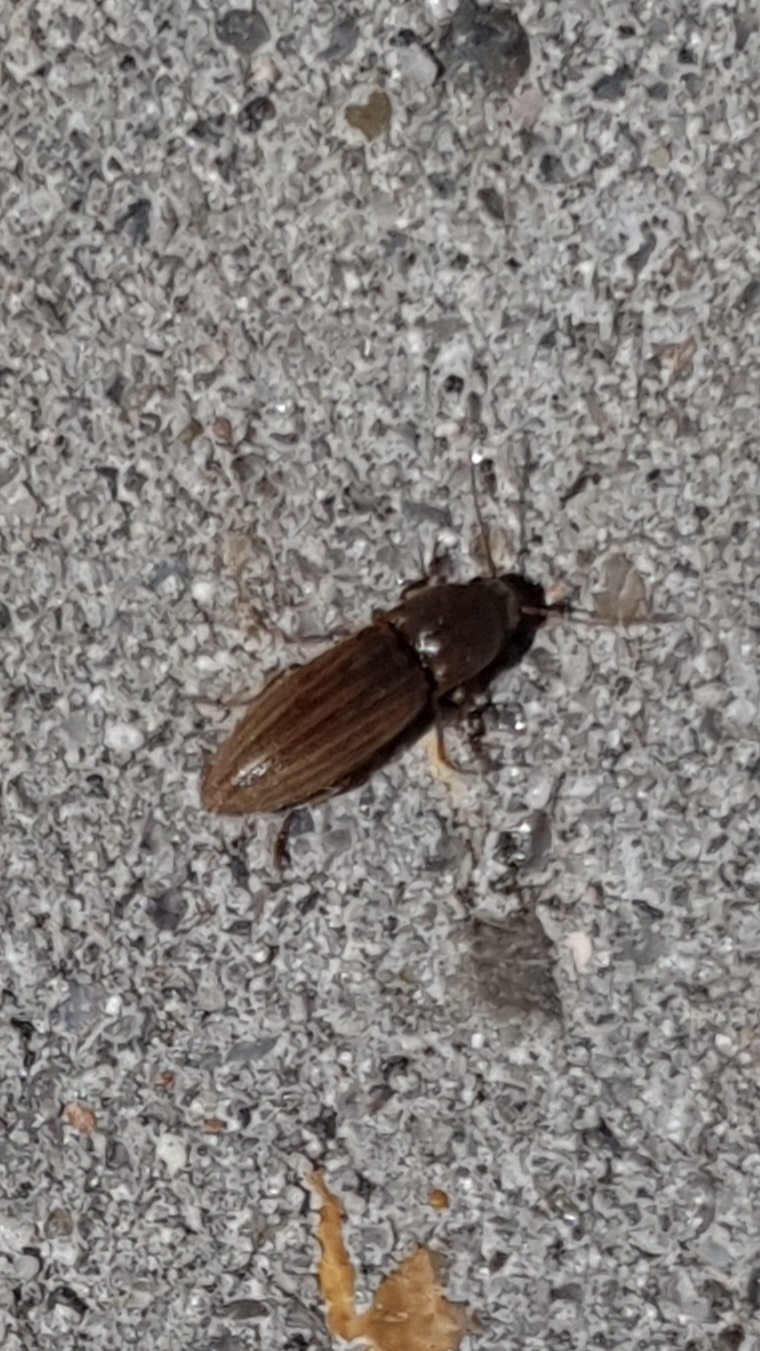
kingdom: Animalia
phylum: Arthropoda
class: Insecta
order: Coleoptera
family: Elateridae
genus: Agriotes
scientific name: Agriotes lineatus
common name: Lined click beetle
